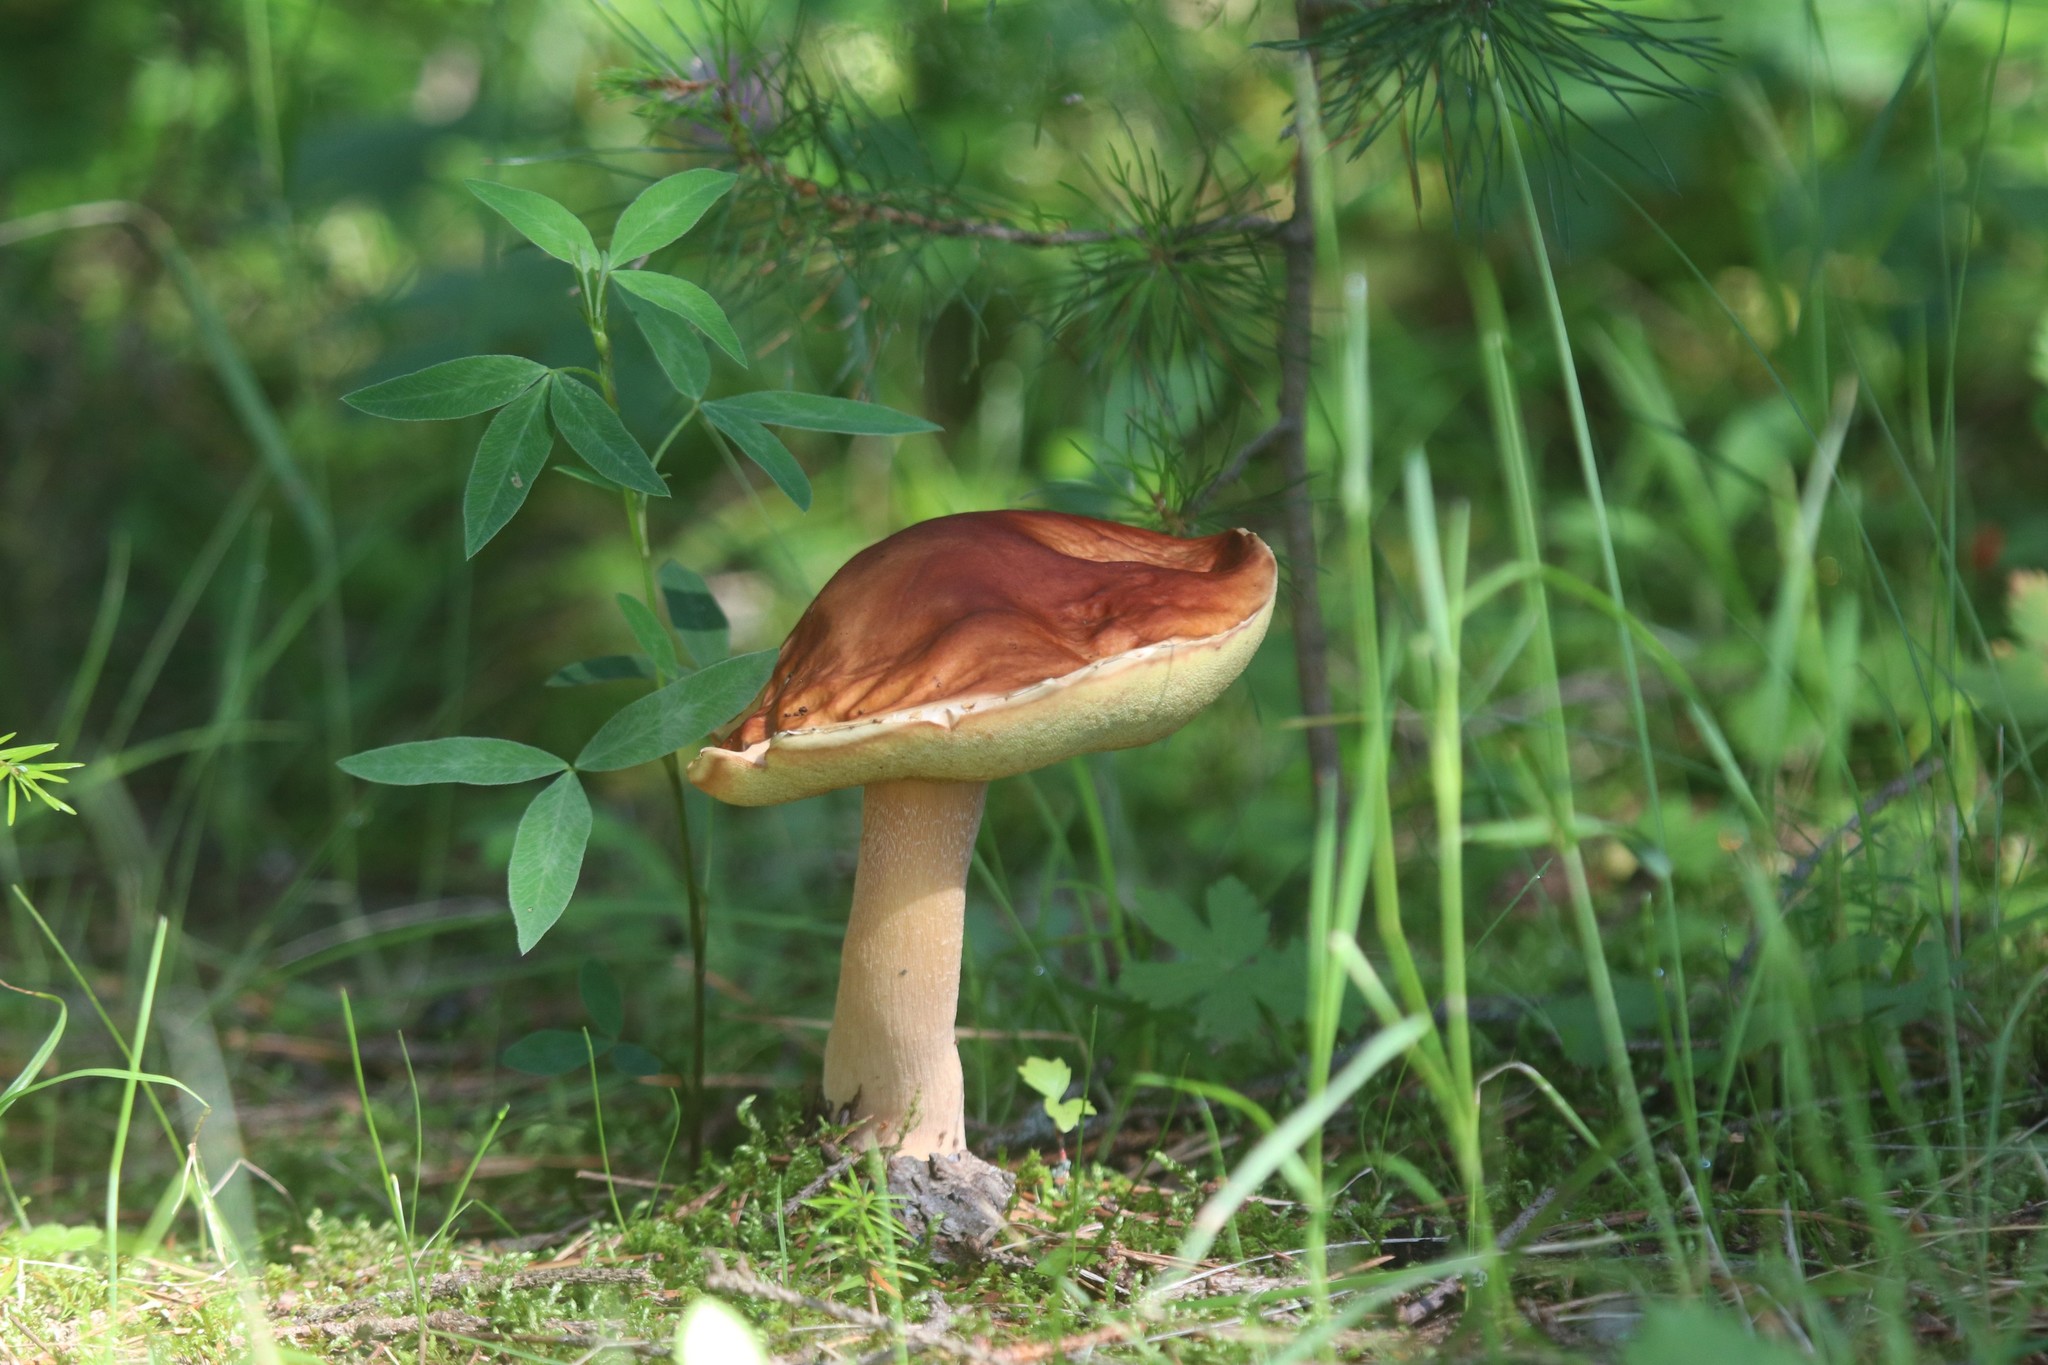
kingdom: Fungi
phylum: Basidiomycota
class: Agaricomycetes
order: Boletales
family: Boletaceae
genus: Boletus
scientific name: Boletus edulis
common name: Cep
